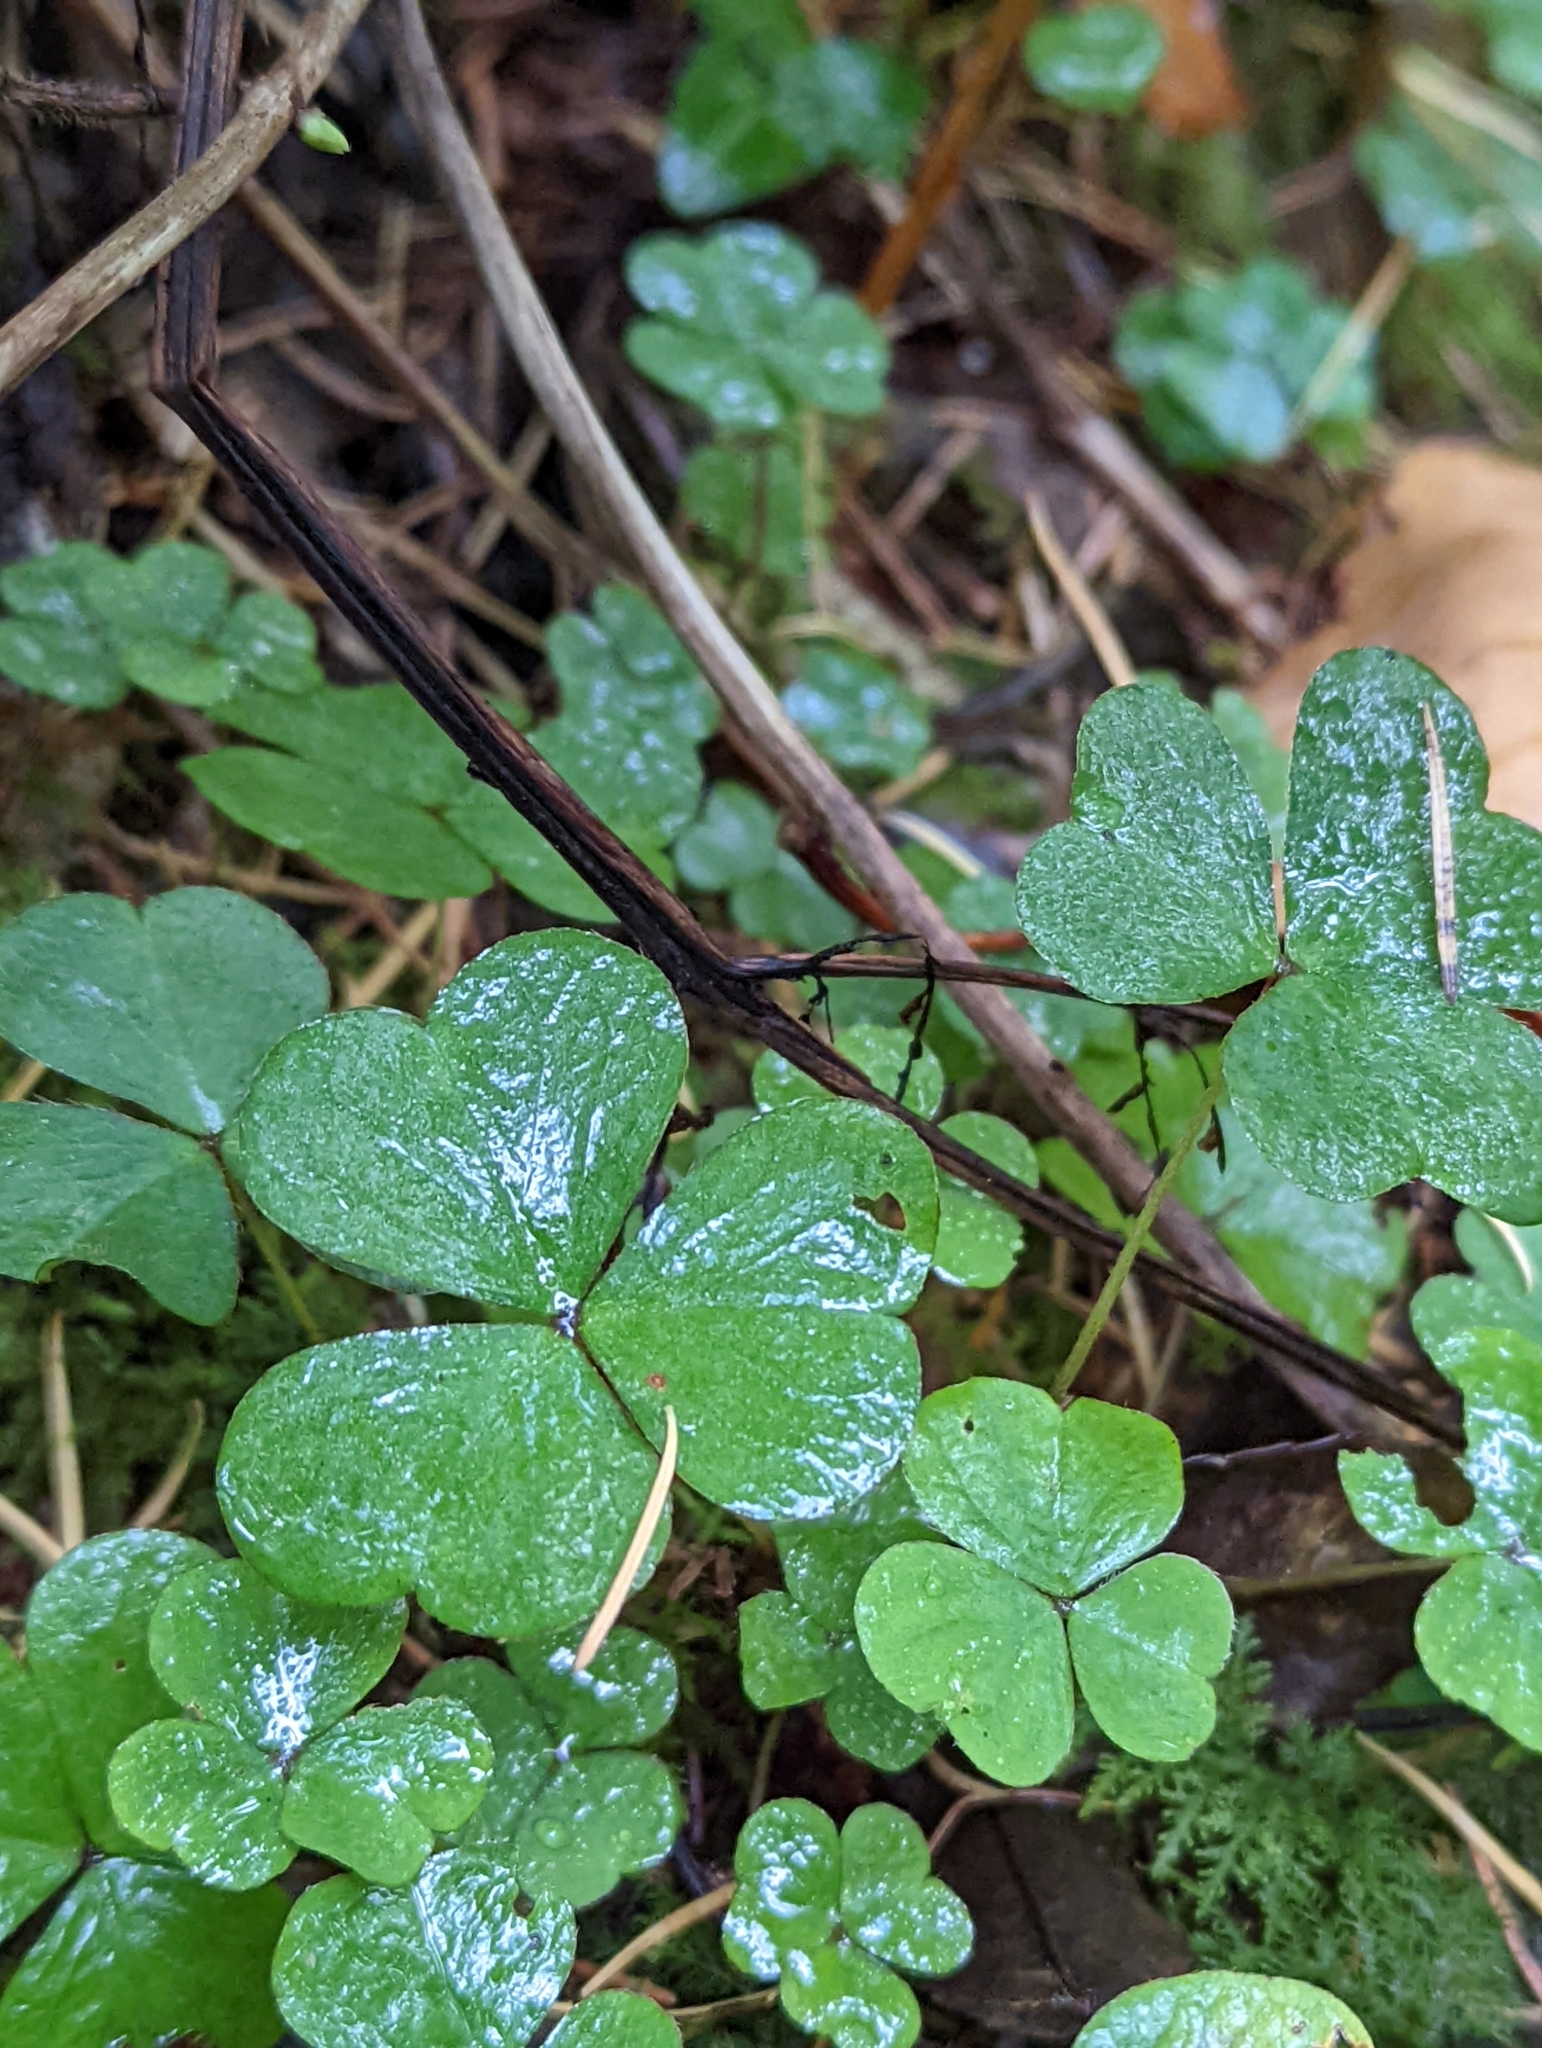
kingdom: Plantae
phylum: Tracheophyta
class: Magnoliopsida
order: Oxalidales
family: Oxalidaceae
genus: Oxalis
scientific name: Oxalis acetosella
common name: Wood-sorrel
